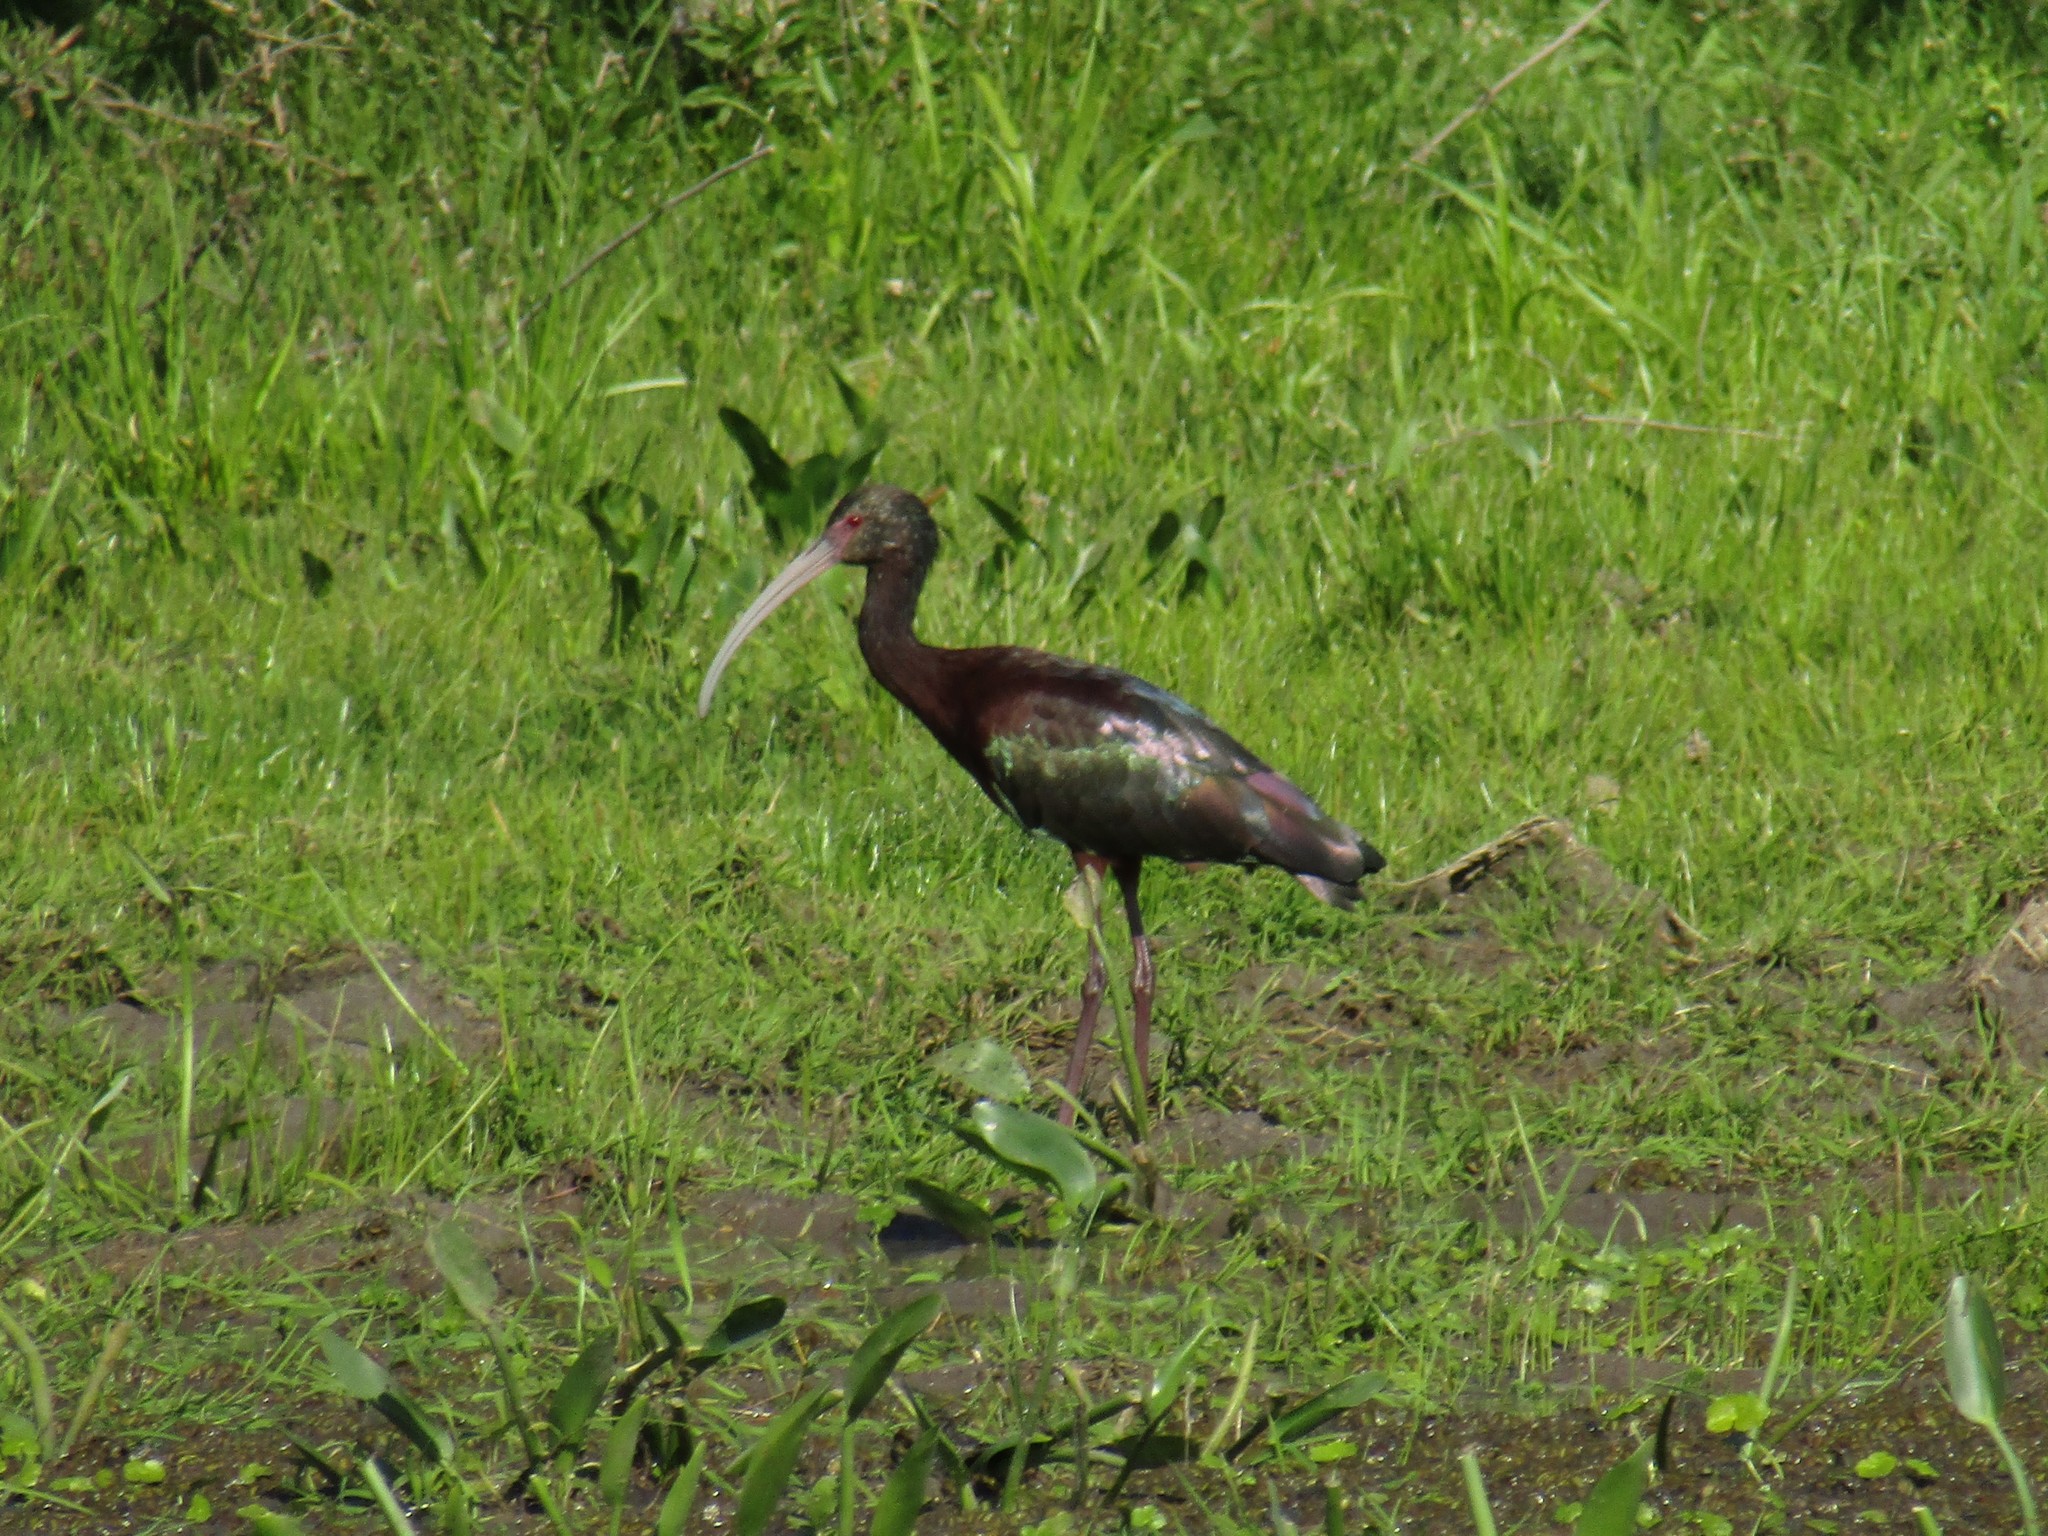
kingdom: Animalia
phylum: Chordata
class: Aves
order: Pelecaniformes
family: Threskiornithidae
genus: Plegadis
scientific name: Plegadis chihi
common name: White-faced ibis
